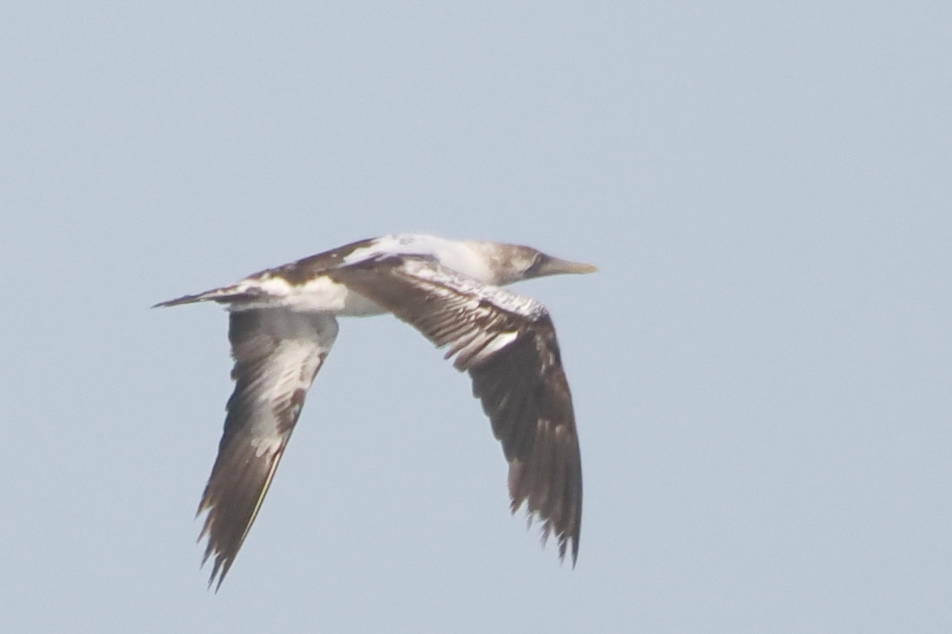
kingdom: Animalia
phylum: Chordata
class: Aves
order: Suliformes
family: Sulidae
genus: Sula
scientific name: Sula dactylatra
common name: Masked booby
